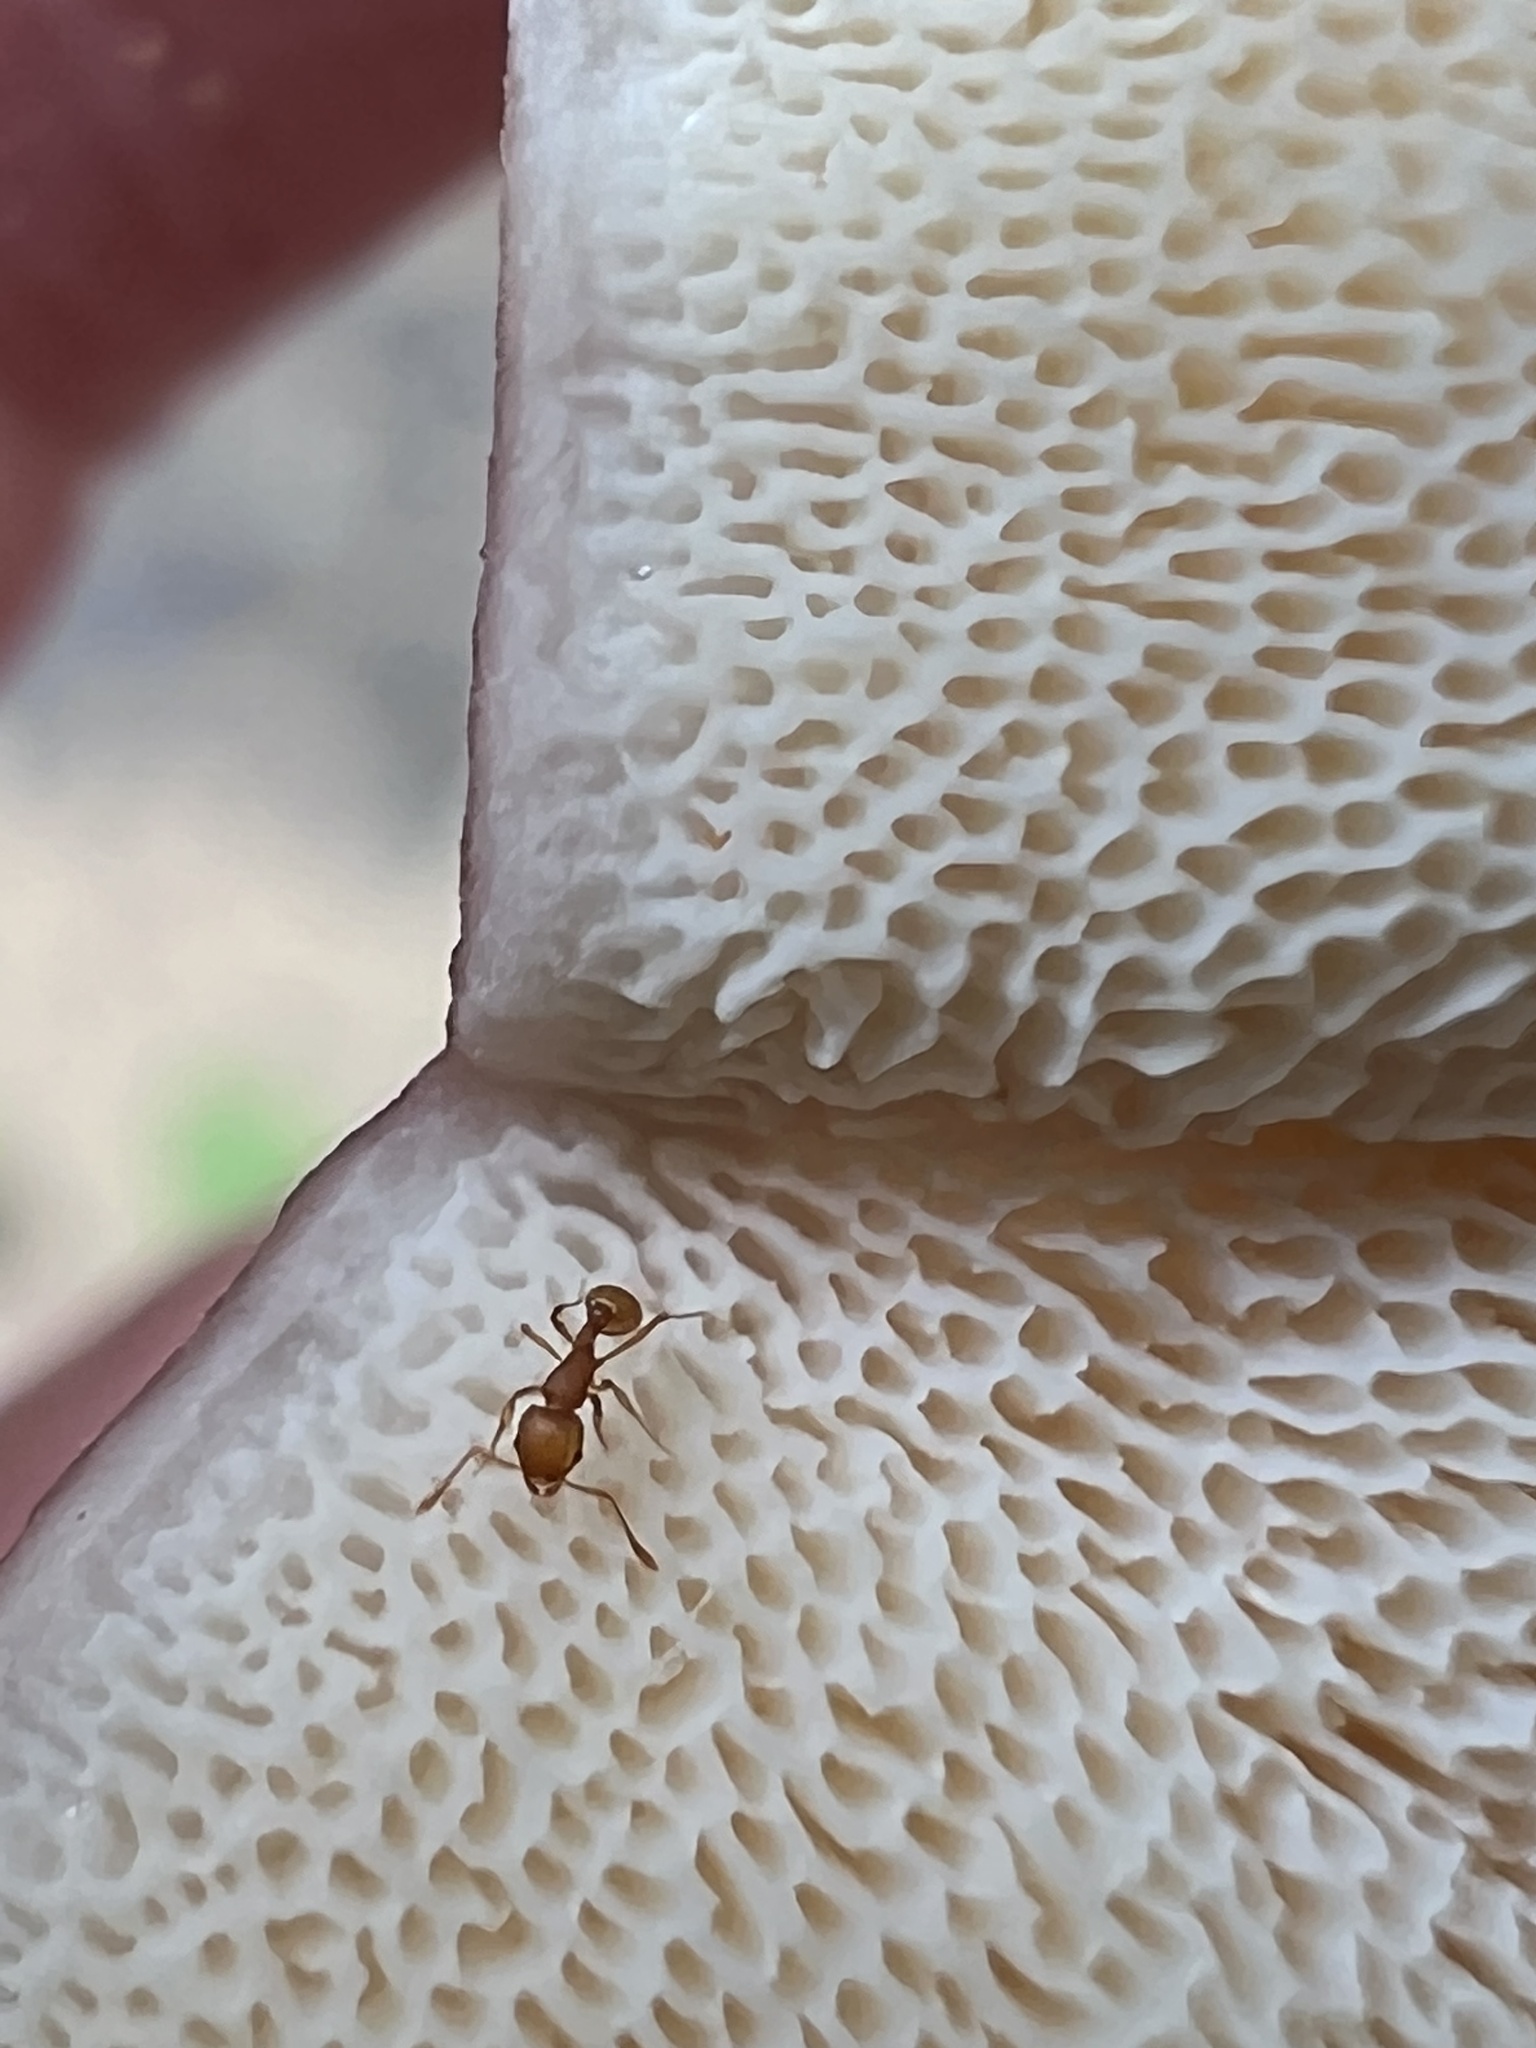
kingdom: Animalia
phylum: Arthropoda
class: Insecta
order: Hymenoptera
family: Formicidae
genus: Wasmannia
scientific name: Wasmannia auropunctata
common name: Little fire ant
